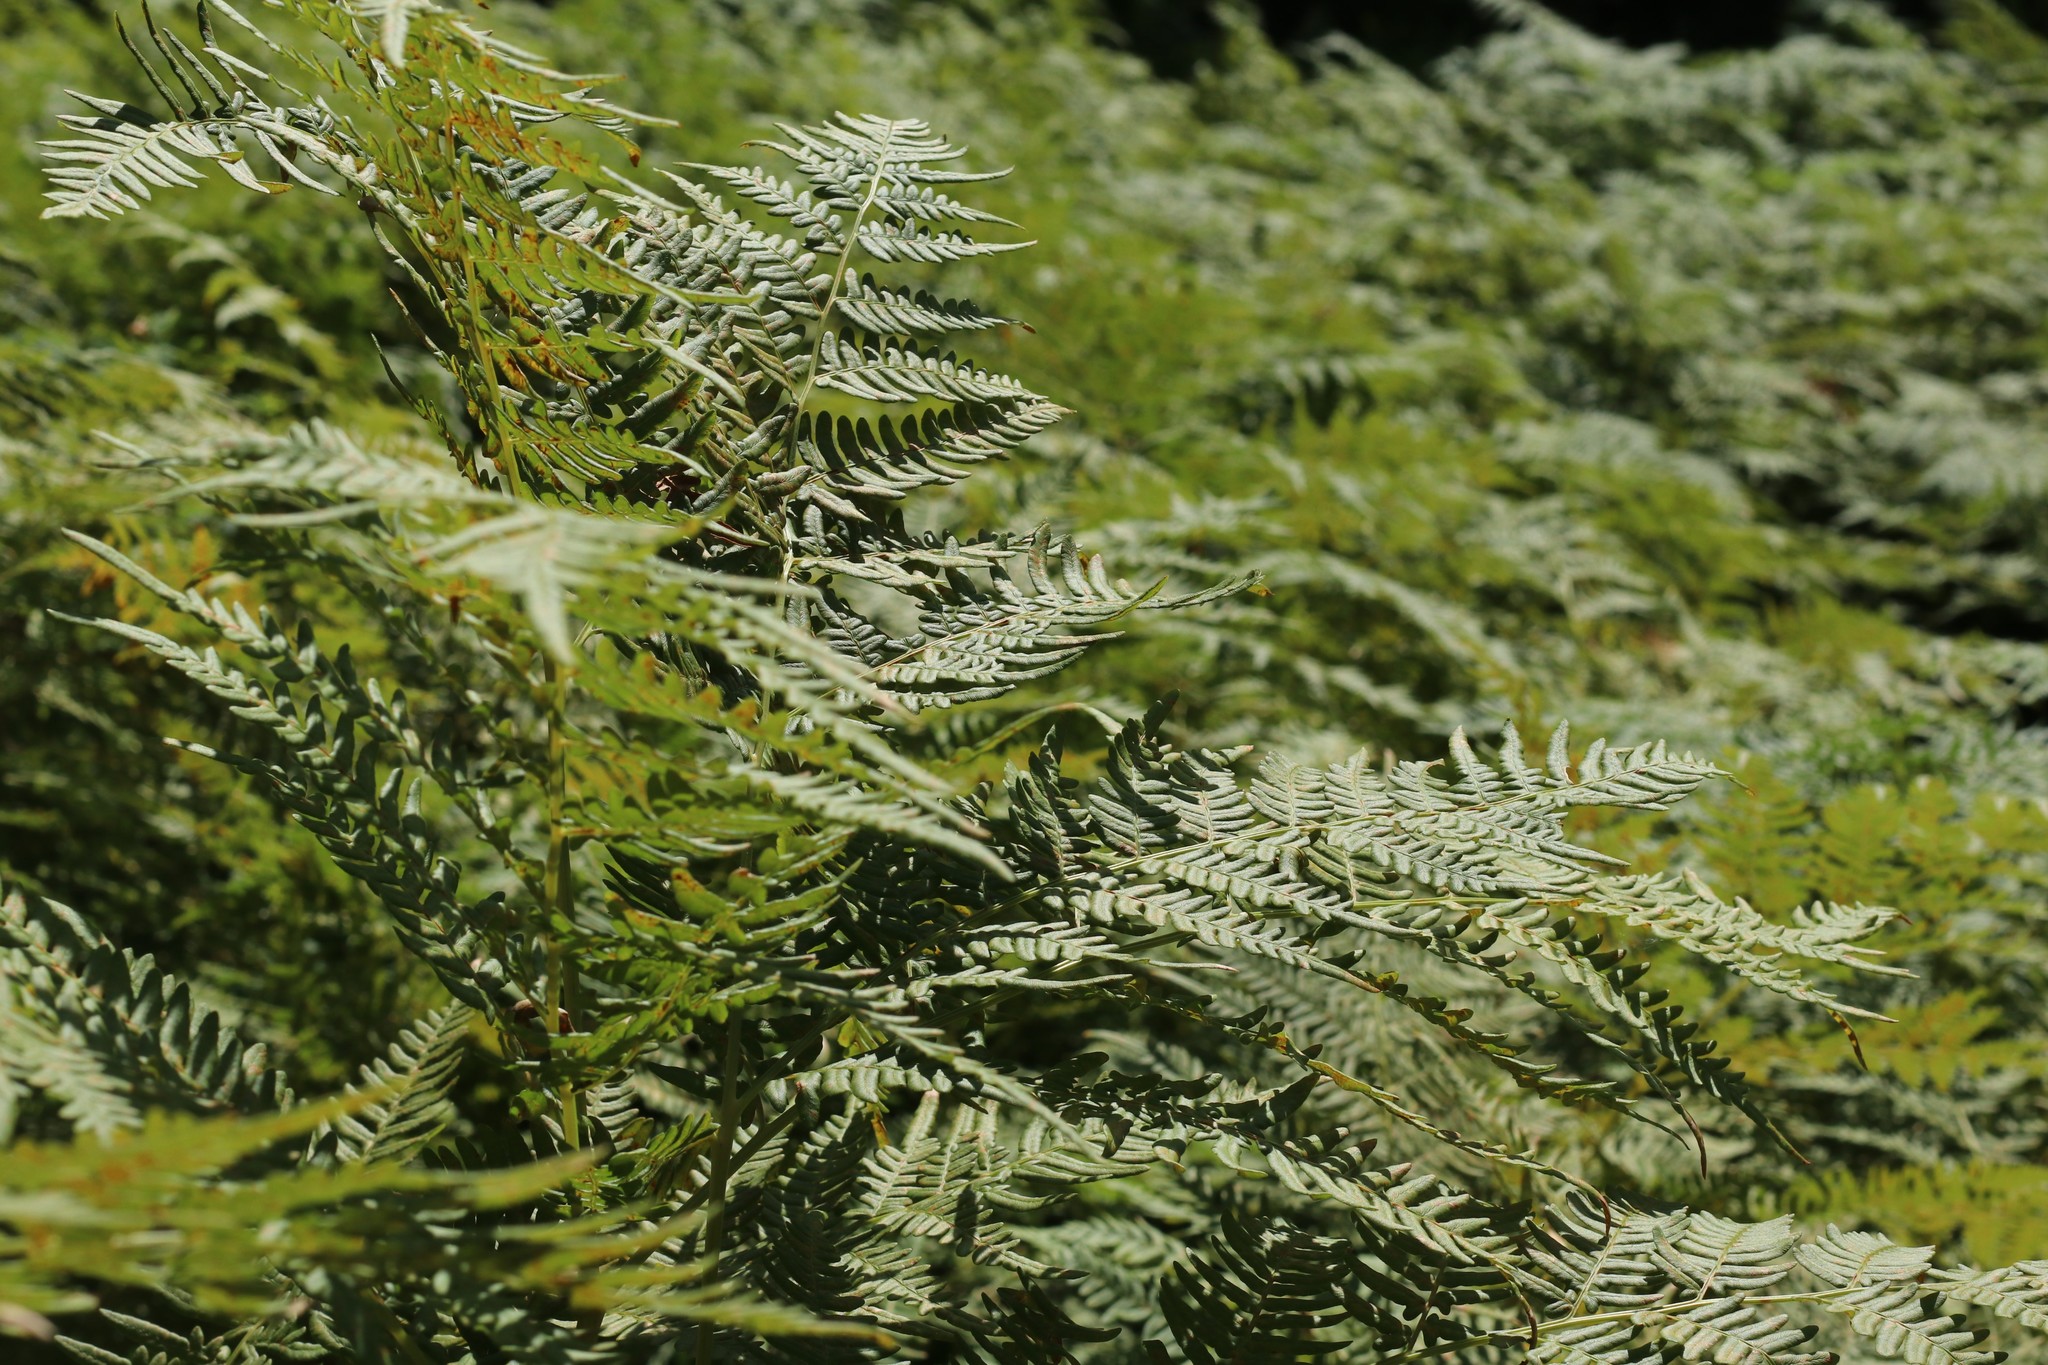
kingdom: Plantae
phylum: Tracheophyta
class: Polypodiopsida
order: Polypodiales
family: Dennstaedtiaceae
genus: Pteridium
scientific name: Pteridium aquilinum
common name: Bracken
